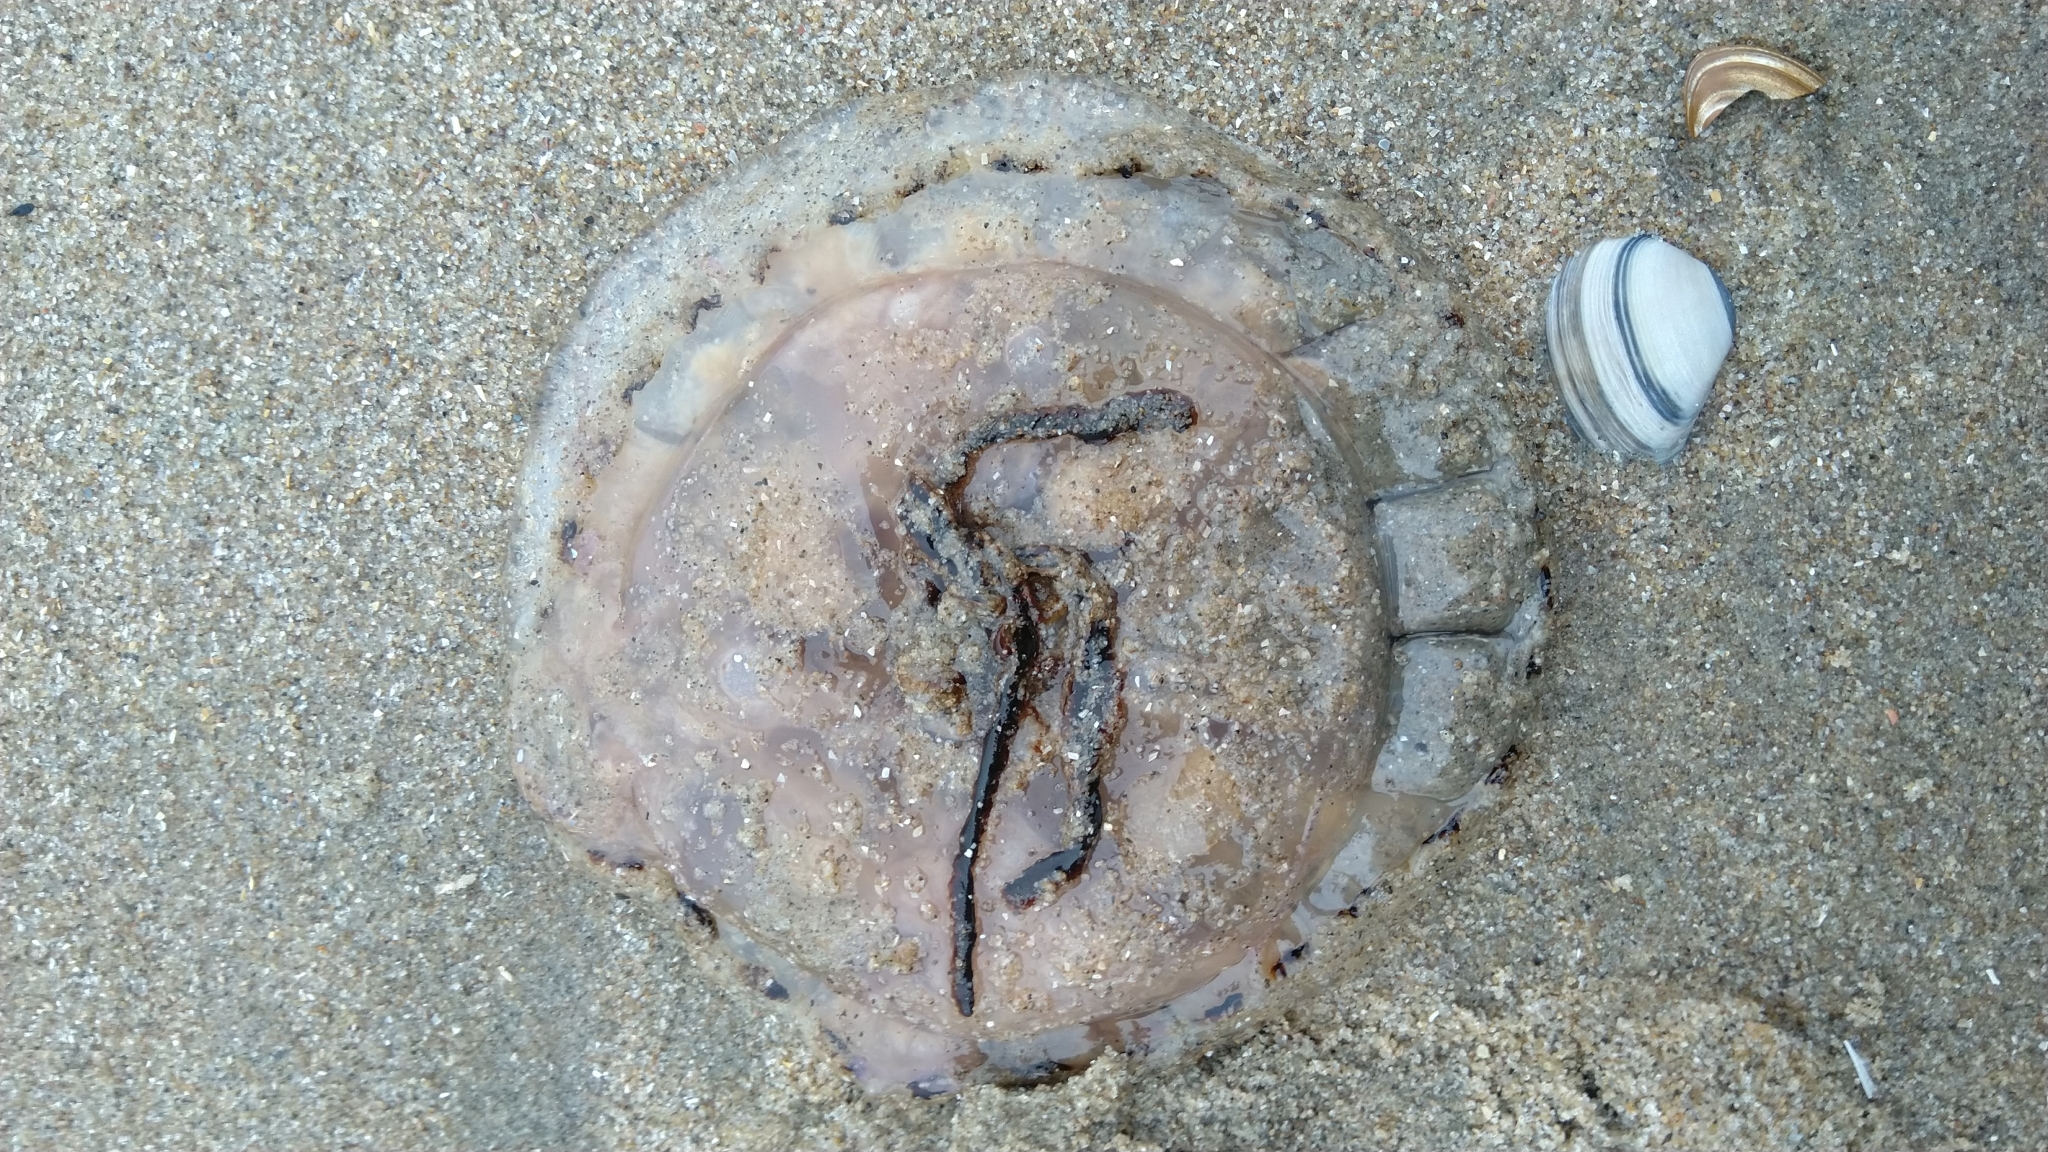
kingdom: Animalia
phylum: Cnidaria
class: Scyphozoa
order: Semaeostomeae
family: Pelagiidae
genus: Chrysaora
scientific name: Chrysaora hysoscella
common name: Compass jellyfish
